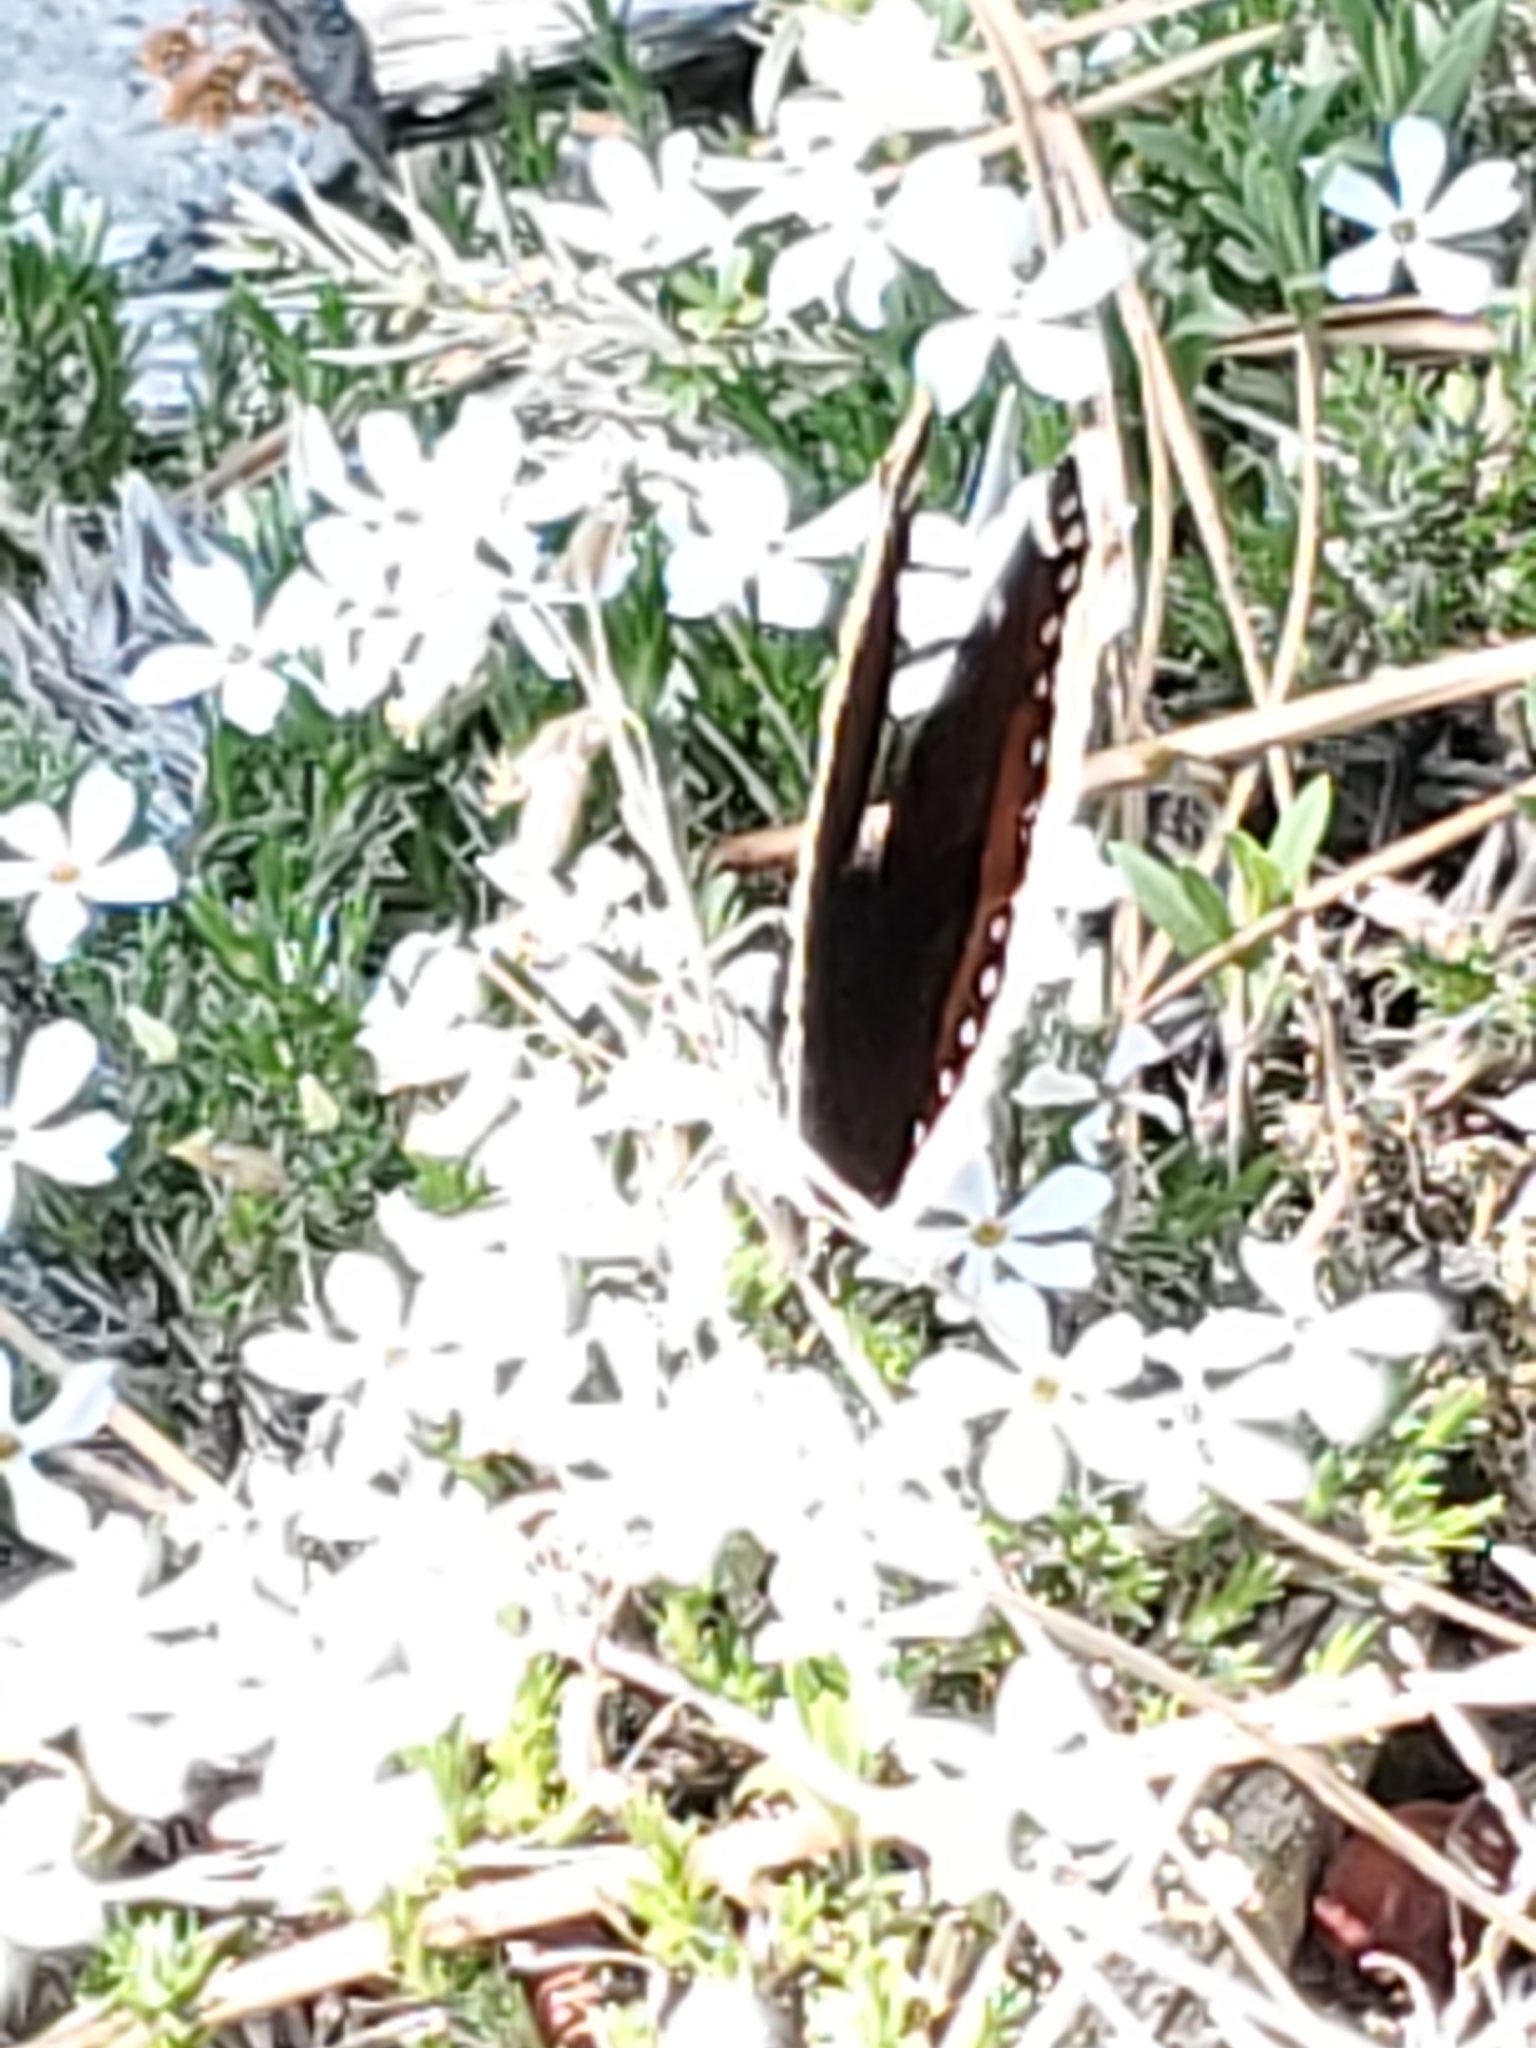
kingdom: Animalia
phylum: Arthropoda
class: Insecta
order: Lepidoptera
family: Nymphalidae
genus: Nymphalis
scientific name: Nymphalis antiopa
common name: Camberwell beauty
